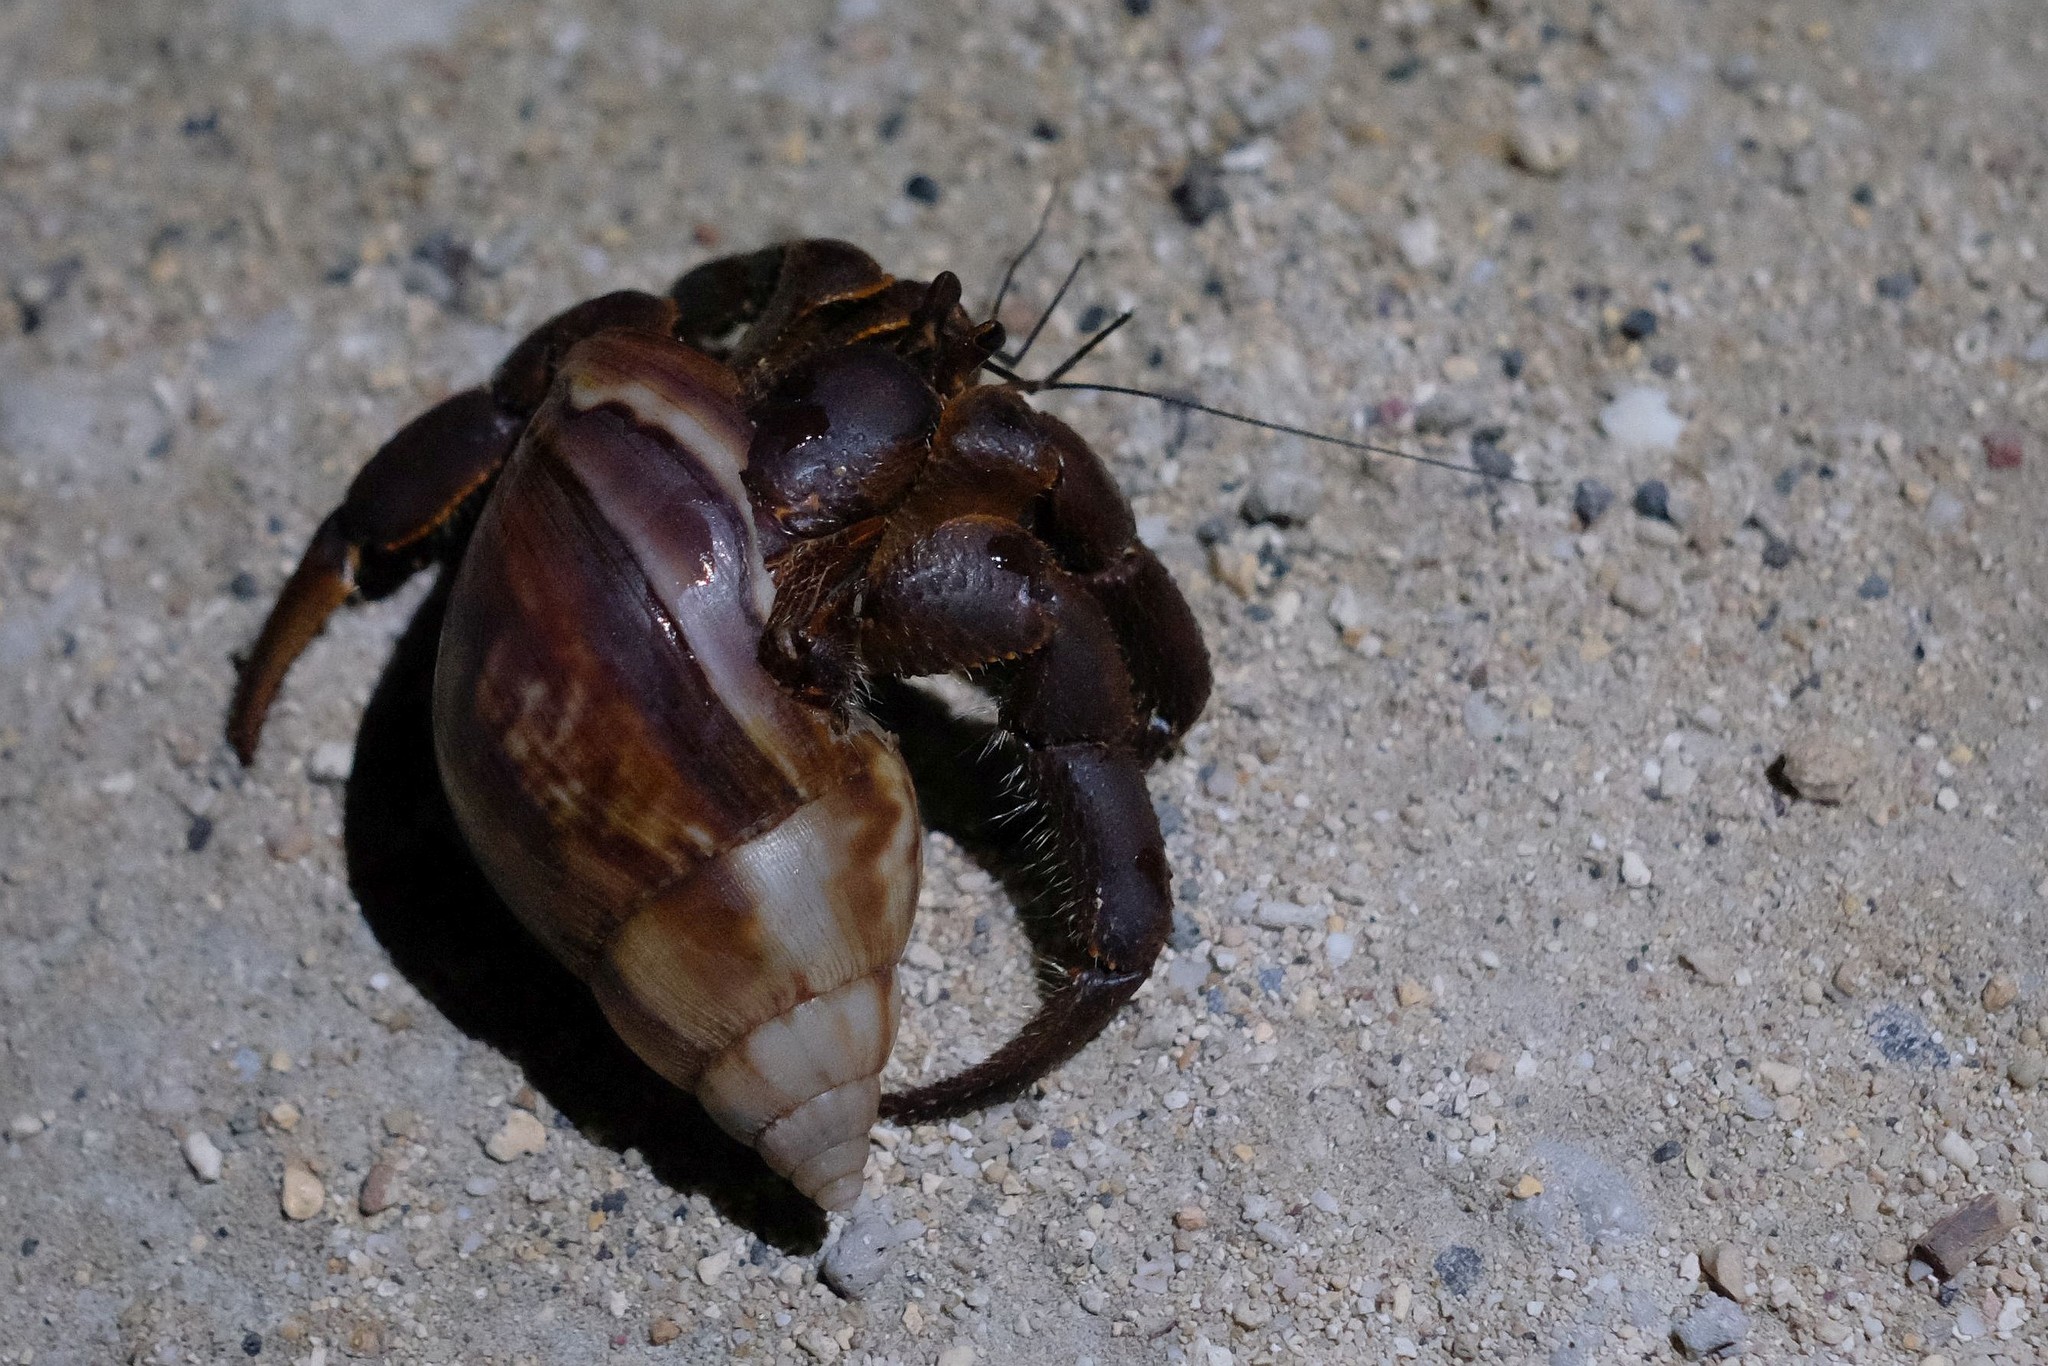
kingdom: Animalia
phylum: Arthropoda
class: Malacostraca
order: Decapoda
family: Coenobitidae
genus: Coenobita
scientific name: Coenobita spinosus
